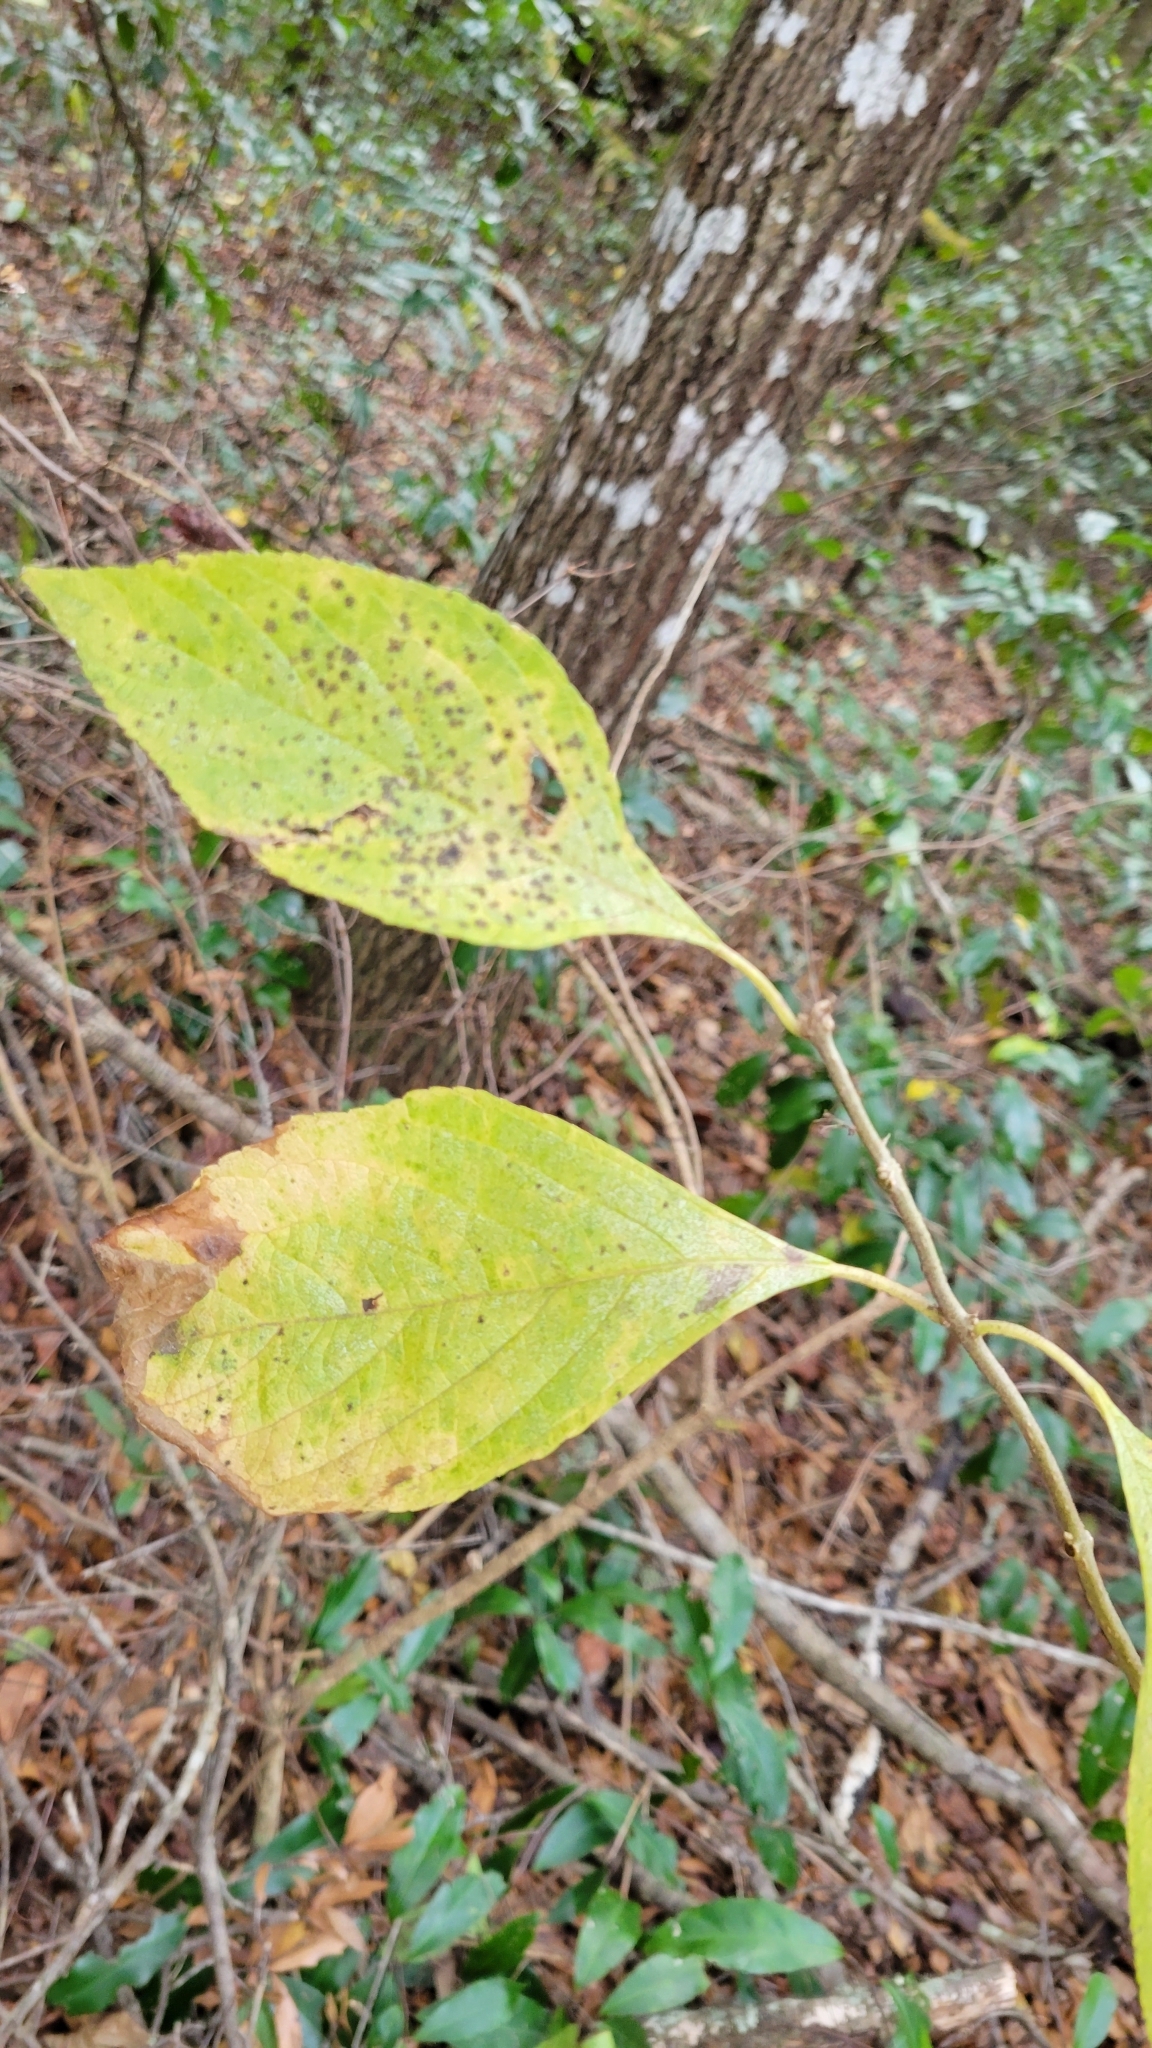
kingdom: Plantae
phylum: Tracheophyta
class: Magnoliopsida
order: Lamiales
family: Lamiaceae
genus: Callicarpa
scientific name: Callicarpa americana
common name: American beautyberry
